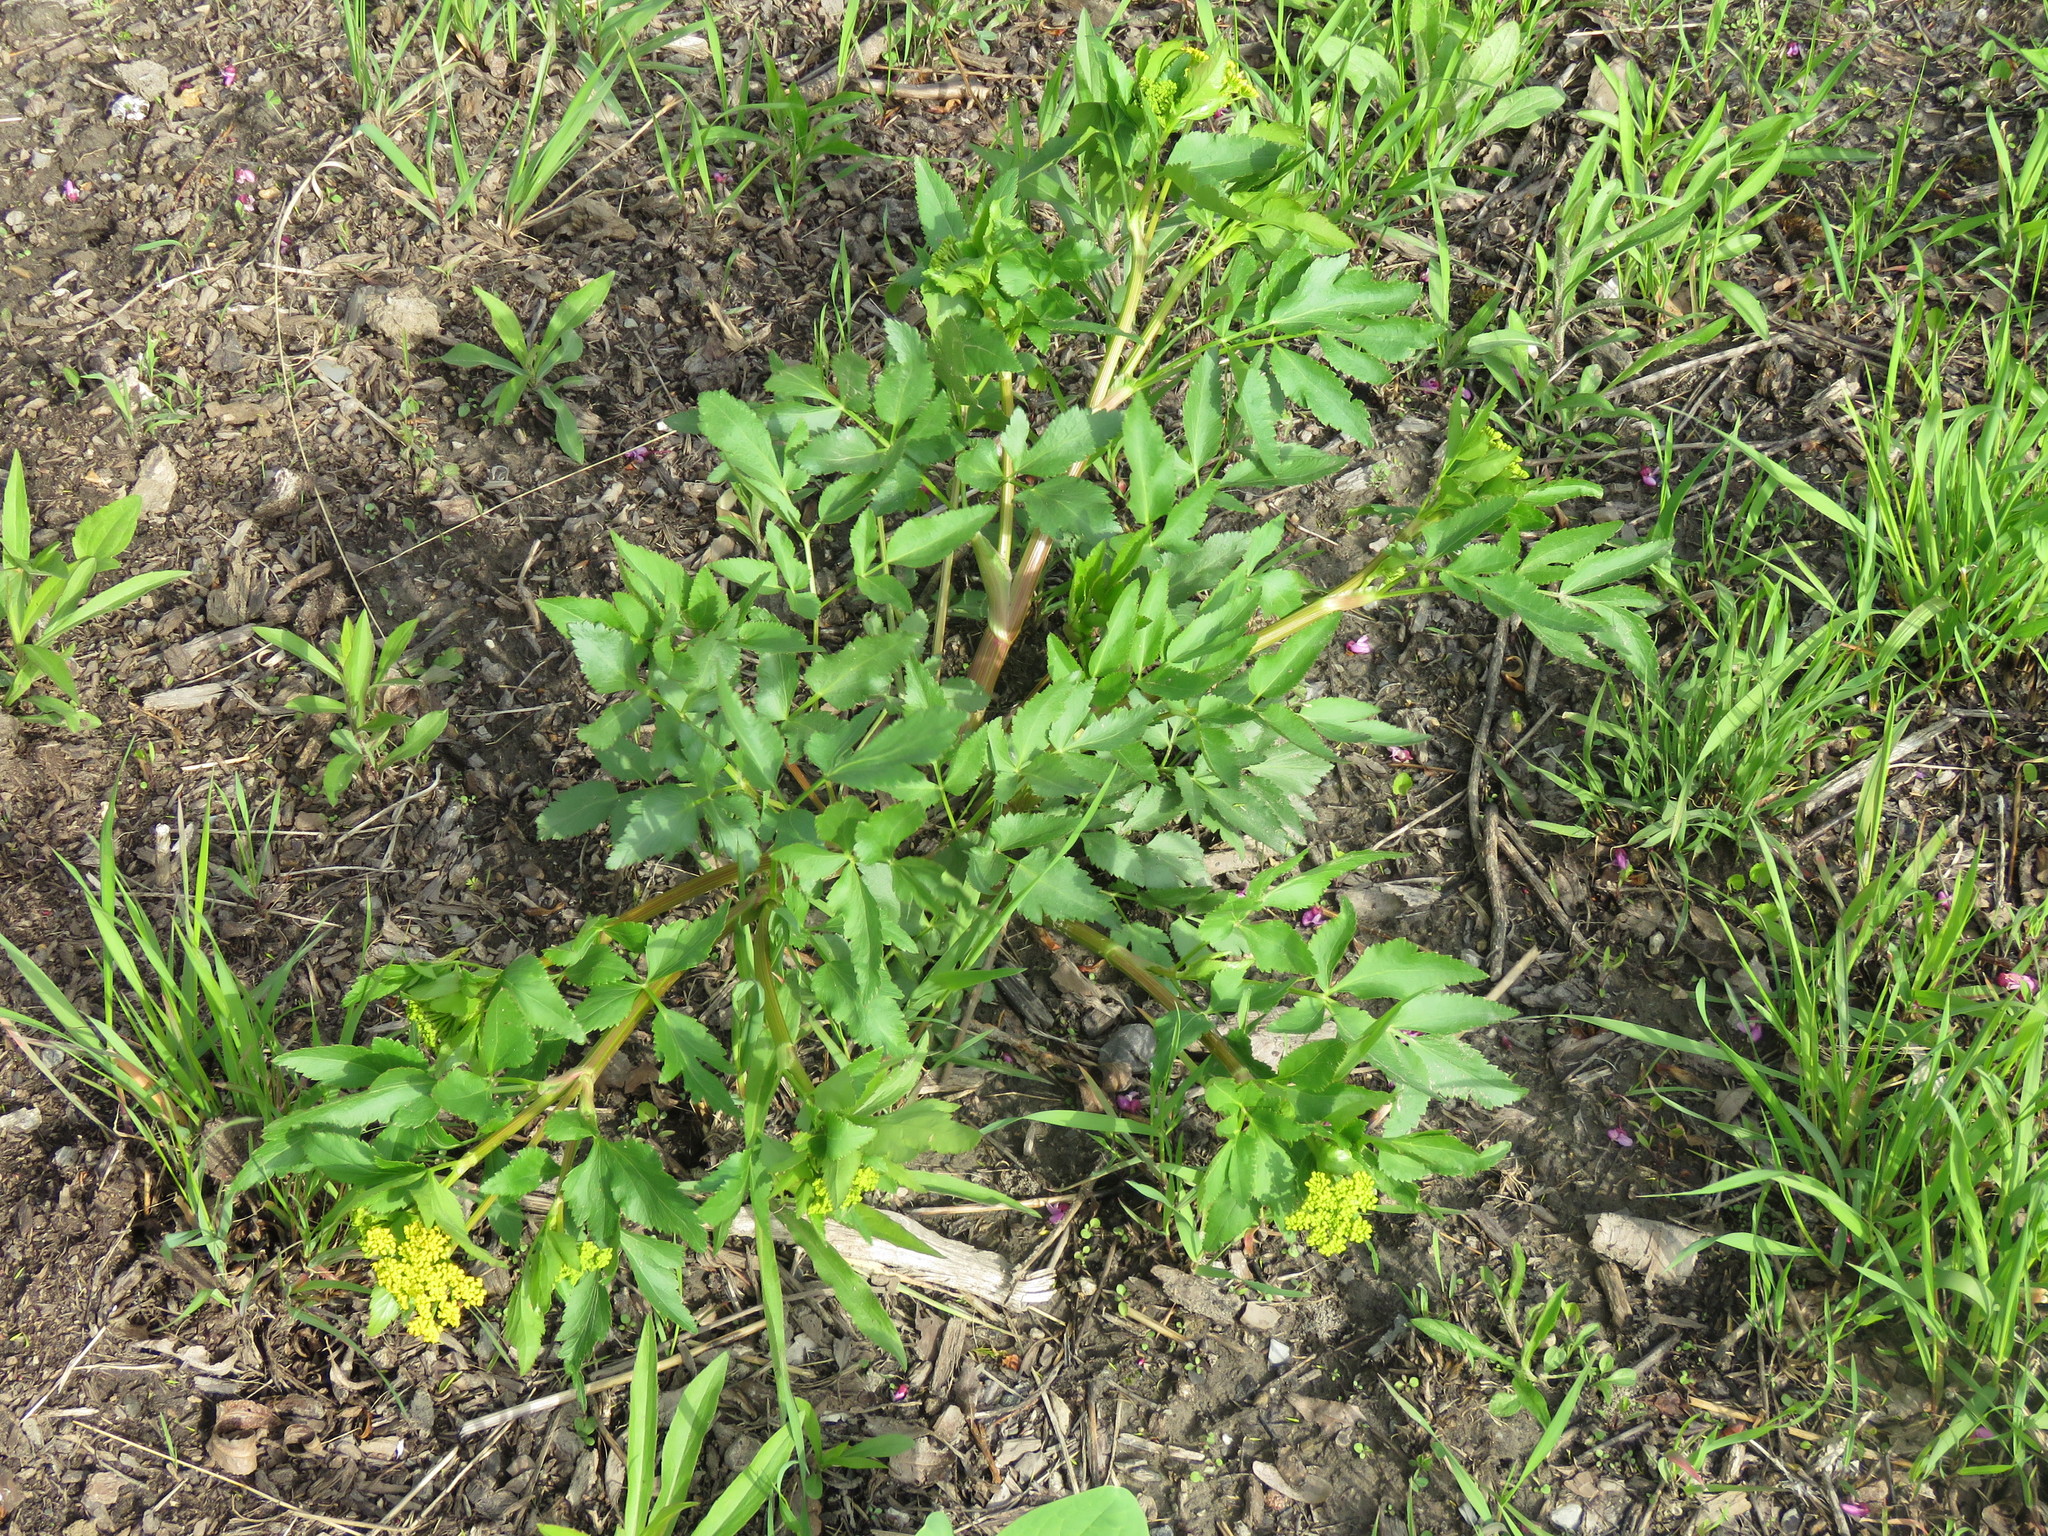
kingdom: Plantae
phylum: Tracheophyta
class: Magnoliopsida
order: Apiales
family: Apiaceae
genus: Zizia
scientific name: Zizia aurea
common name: Golden alexanders
